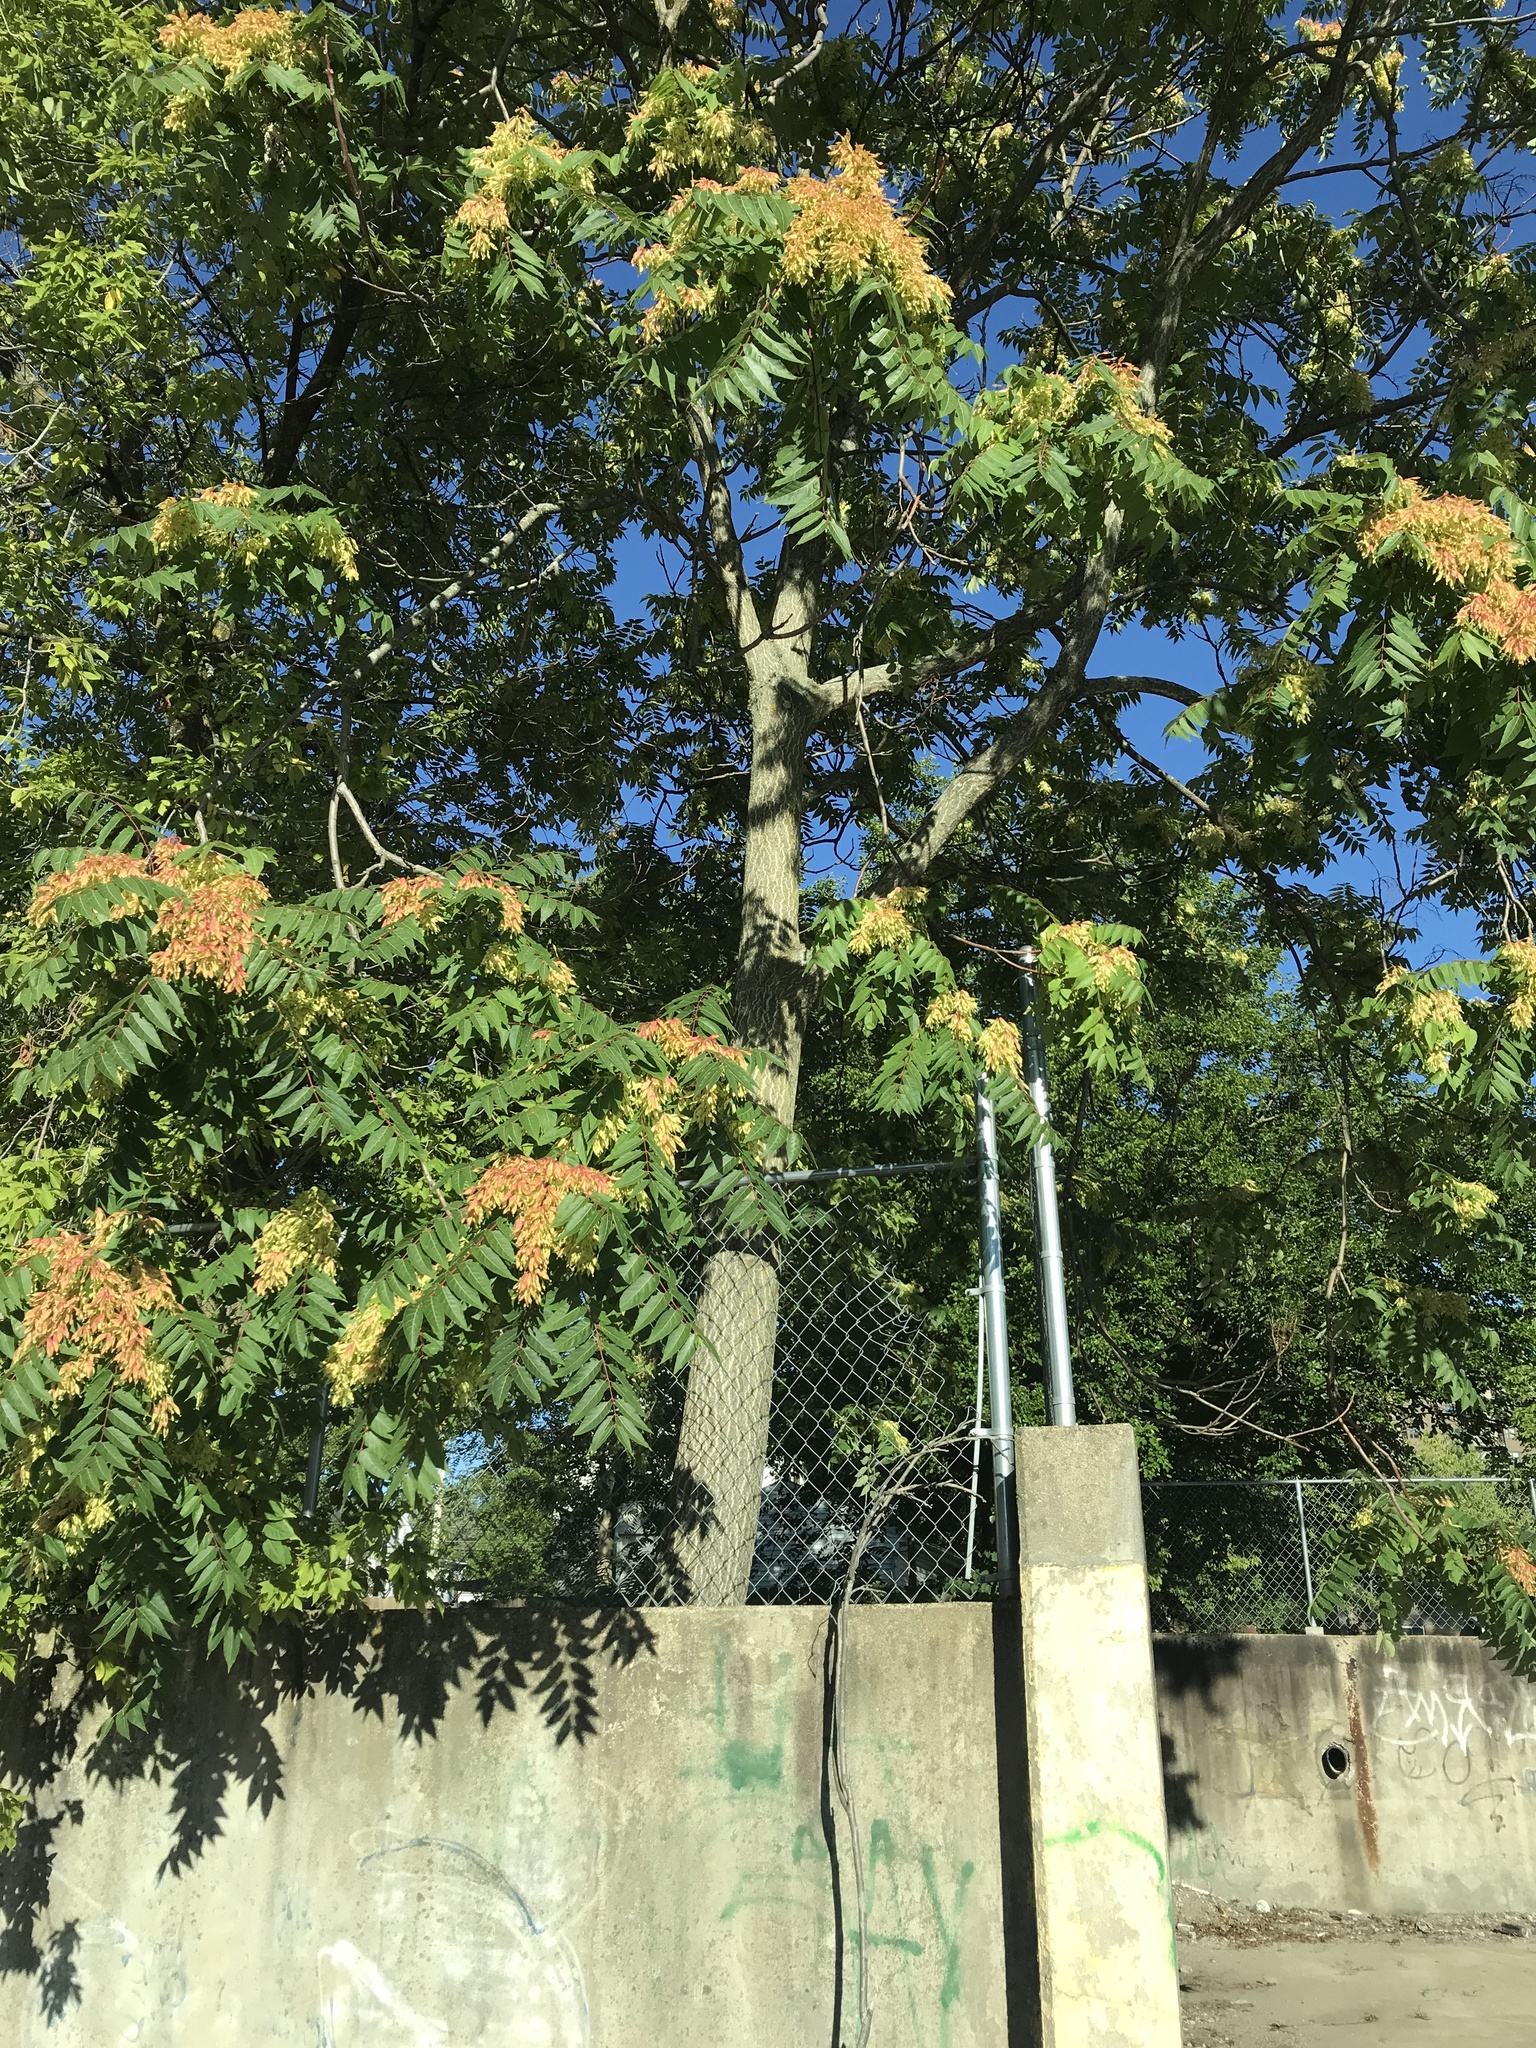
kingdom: Plantae
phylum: Tracheophyta
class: Magnoliopsida
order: Sapindales
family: Simaroubaceae
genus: Ailanthus
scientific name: Ailanthus altissima
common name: Tree-of-heaven
